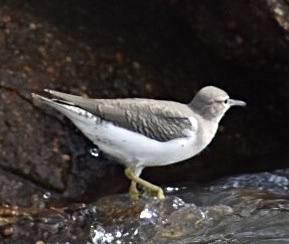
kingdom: Animalia
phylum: Chordata
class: Aves
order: Charadriiformes
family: Scolopacidae
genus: Actitis
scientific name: Actitis macularius
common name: Spotted sandpiper
